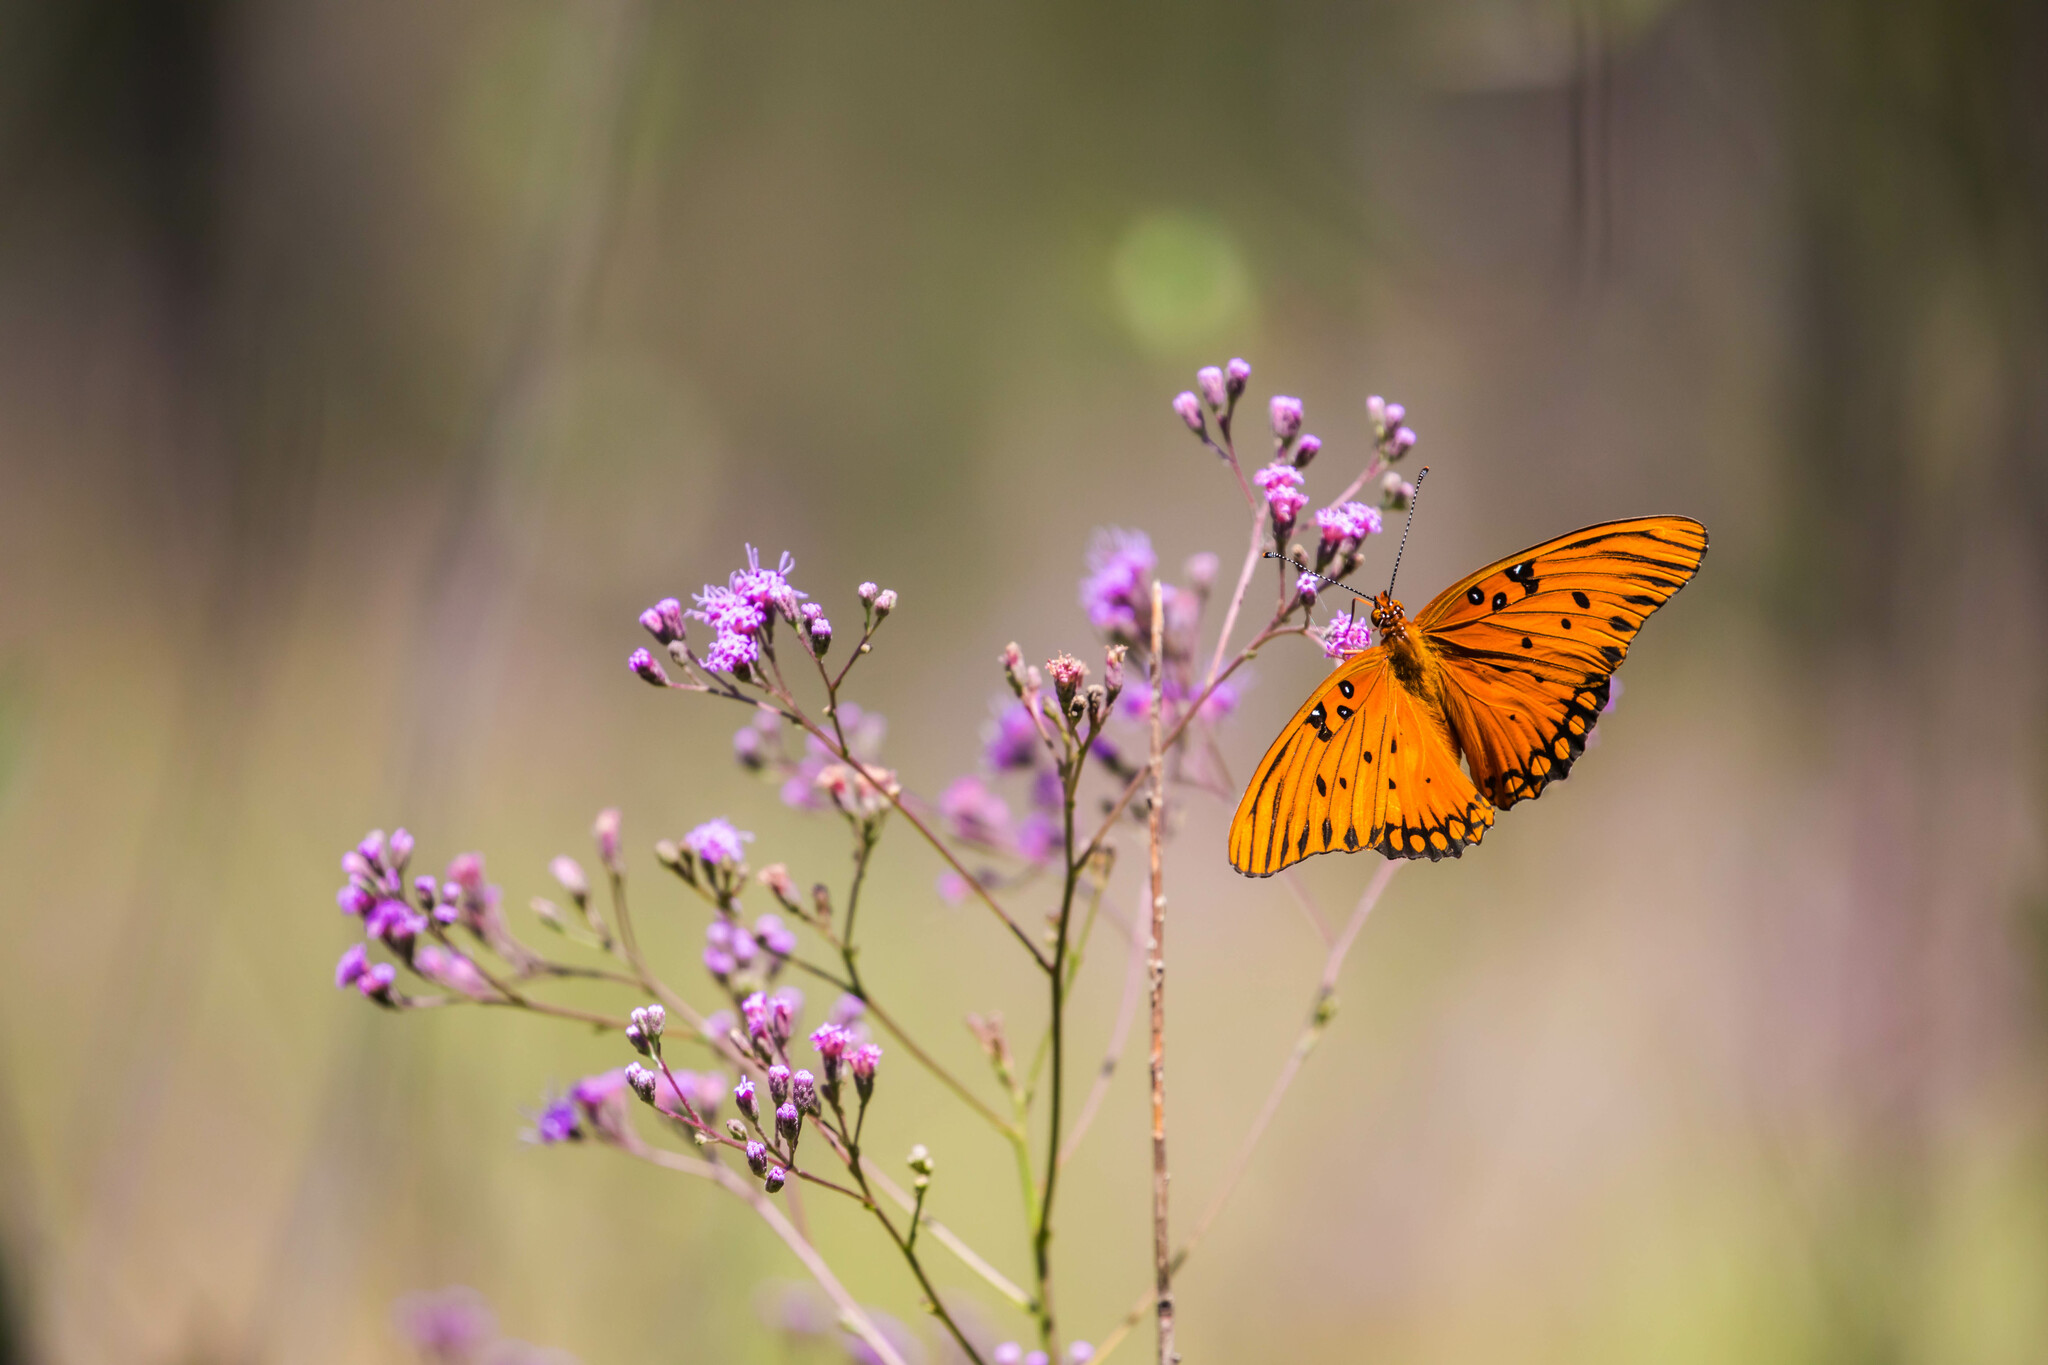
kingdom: Animalia
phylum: Arthropoda
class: Insecta
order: Lepidoptera
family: Nymphalidae
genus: Dione
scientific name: Dione vanillae
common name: Gulf fritillary
